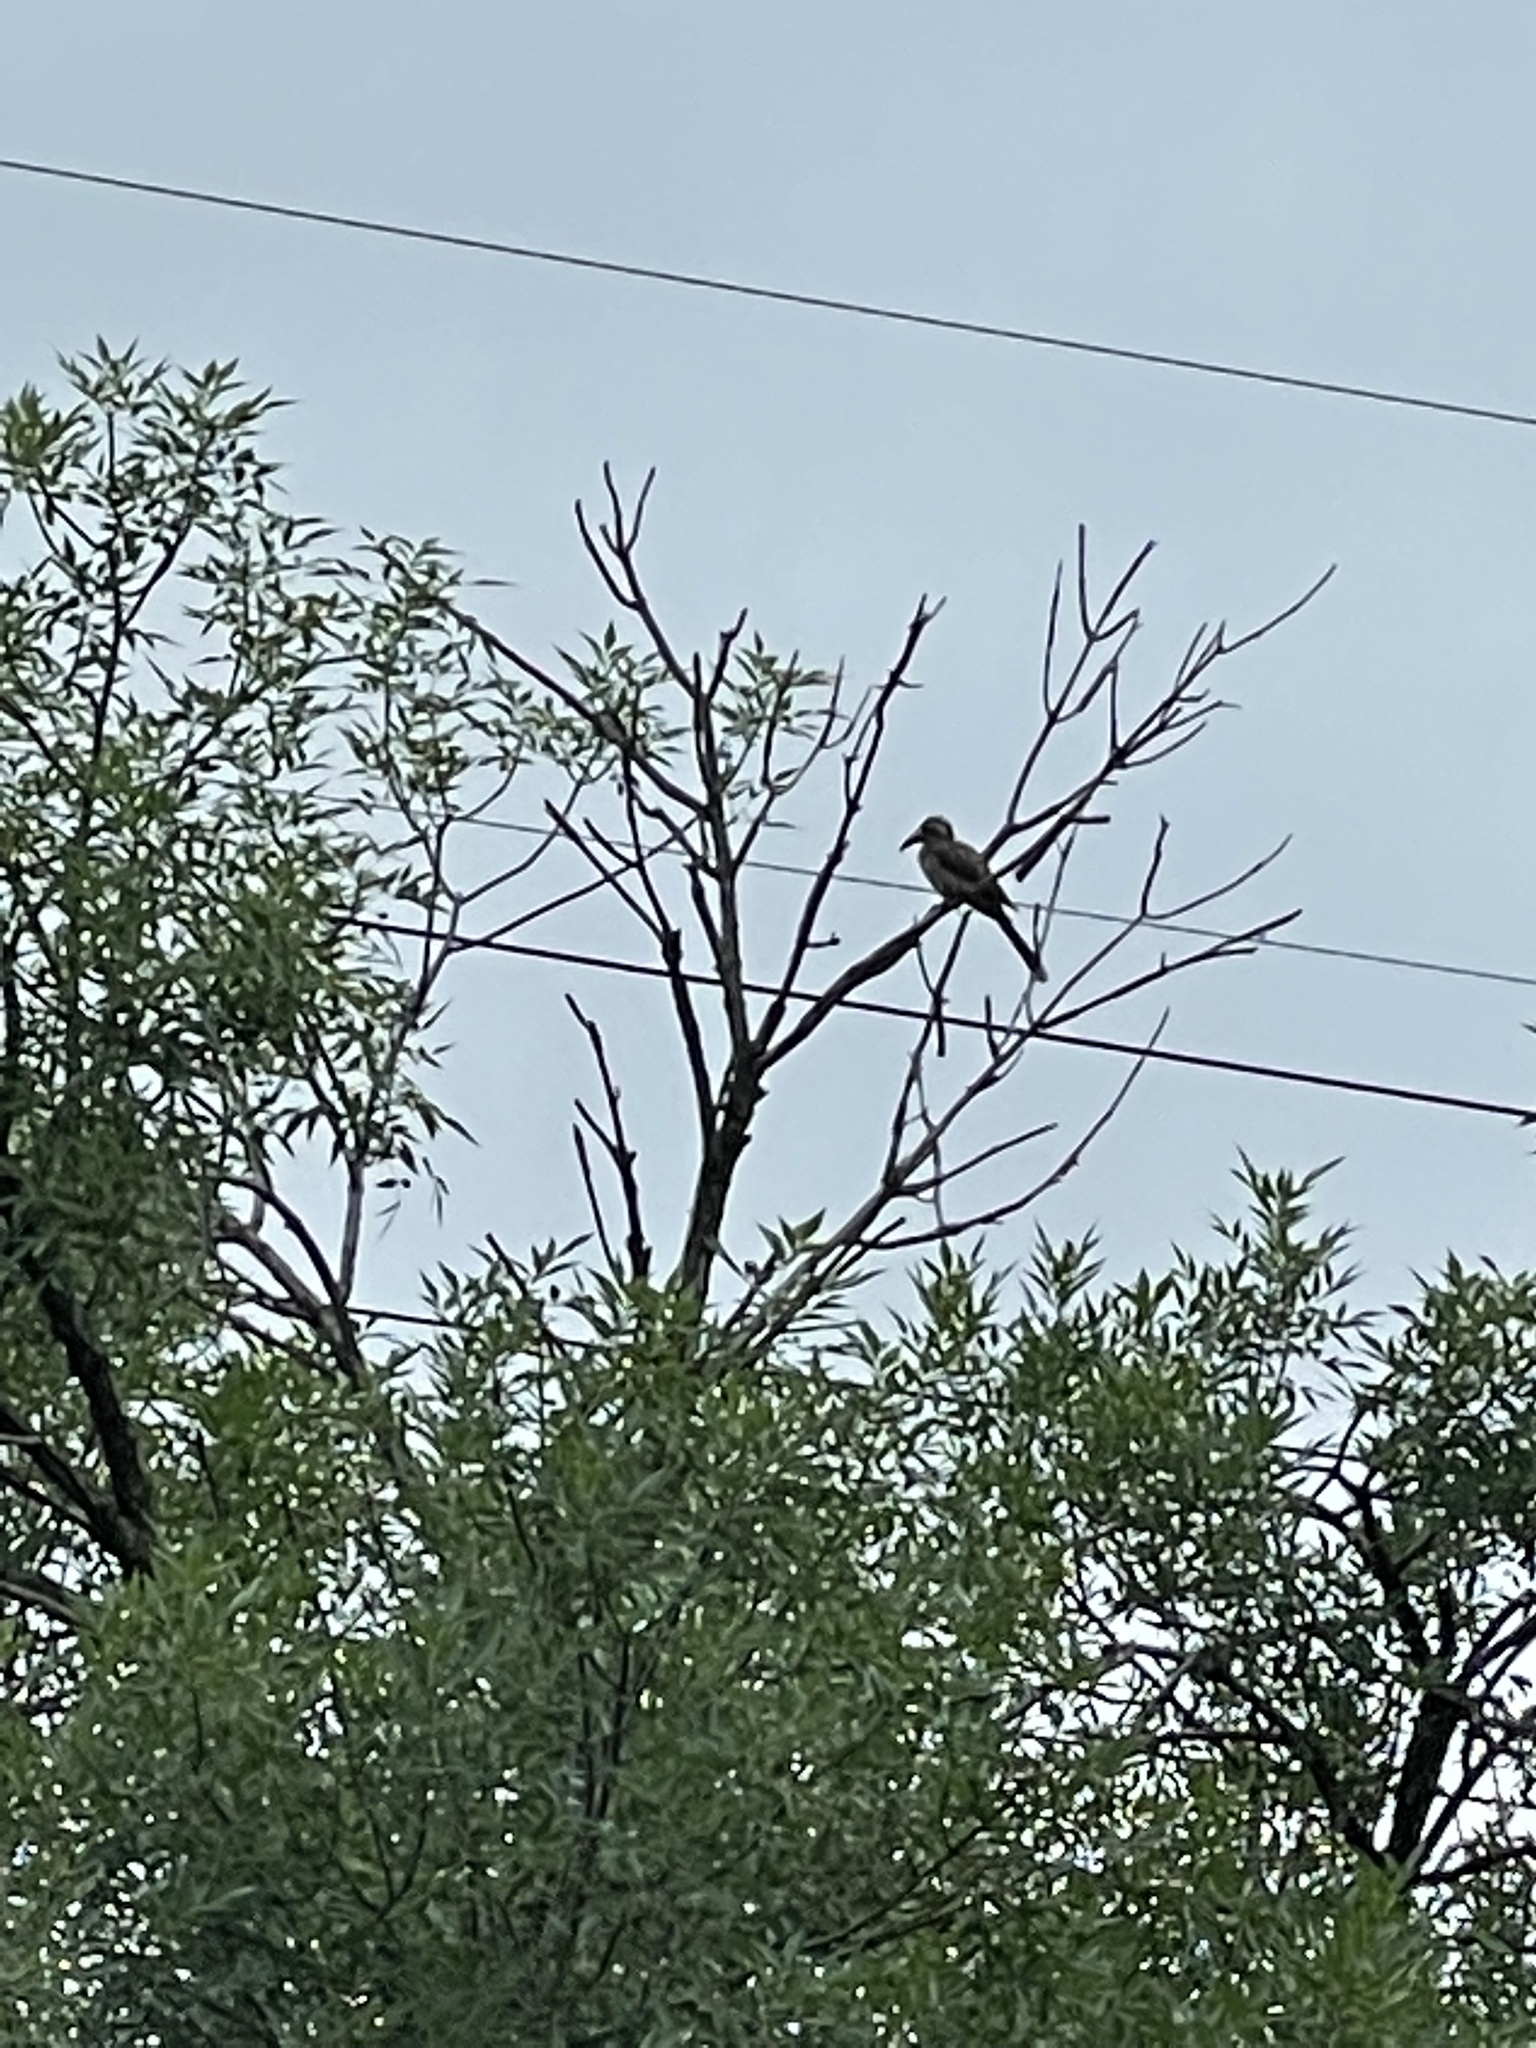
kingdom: Animalia
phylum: Chordata
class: Aves
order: Bucerotiformes
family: Bucerotidae
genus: Tockus
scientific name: Tockus leucomelas
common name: Southern yellow-billed hornbill
